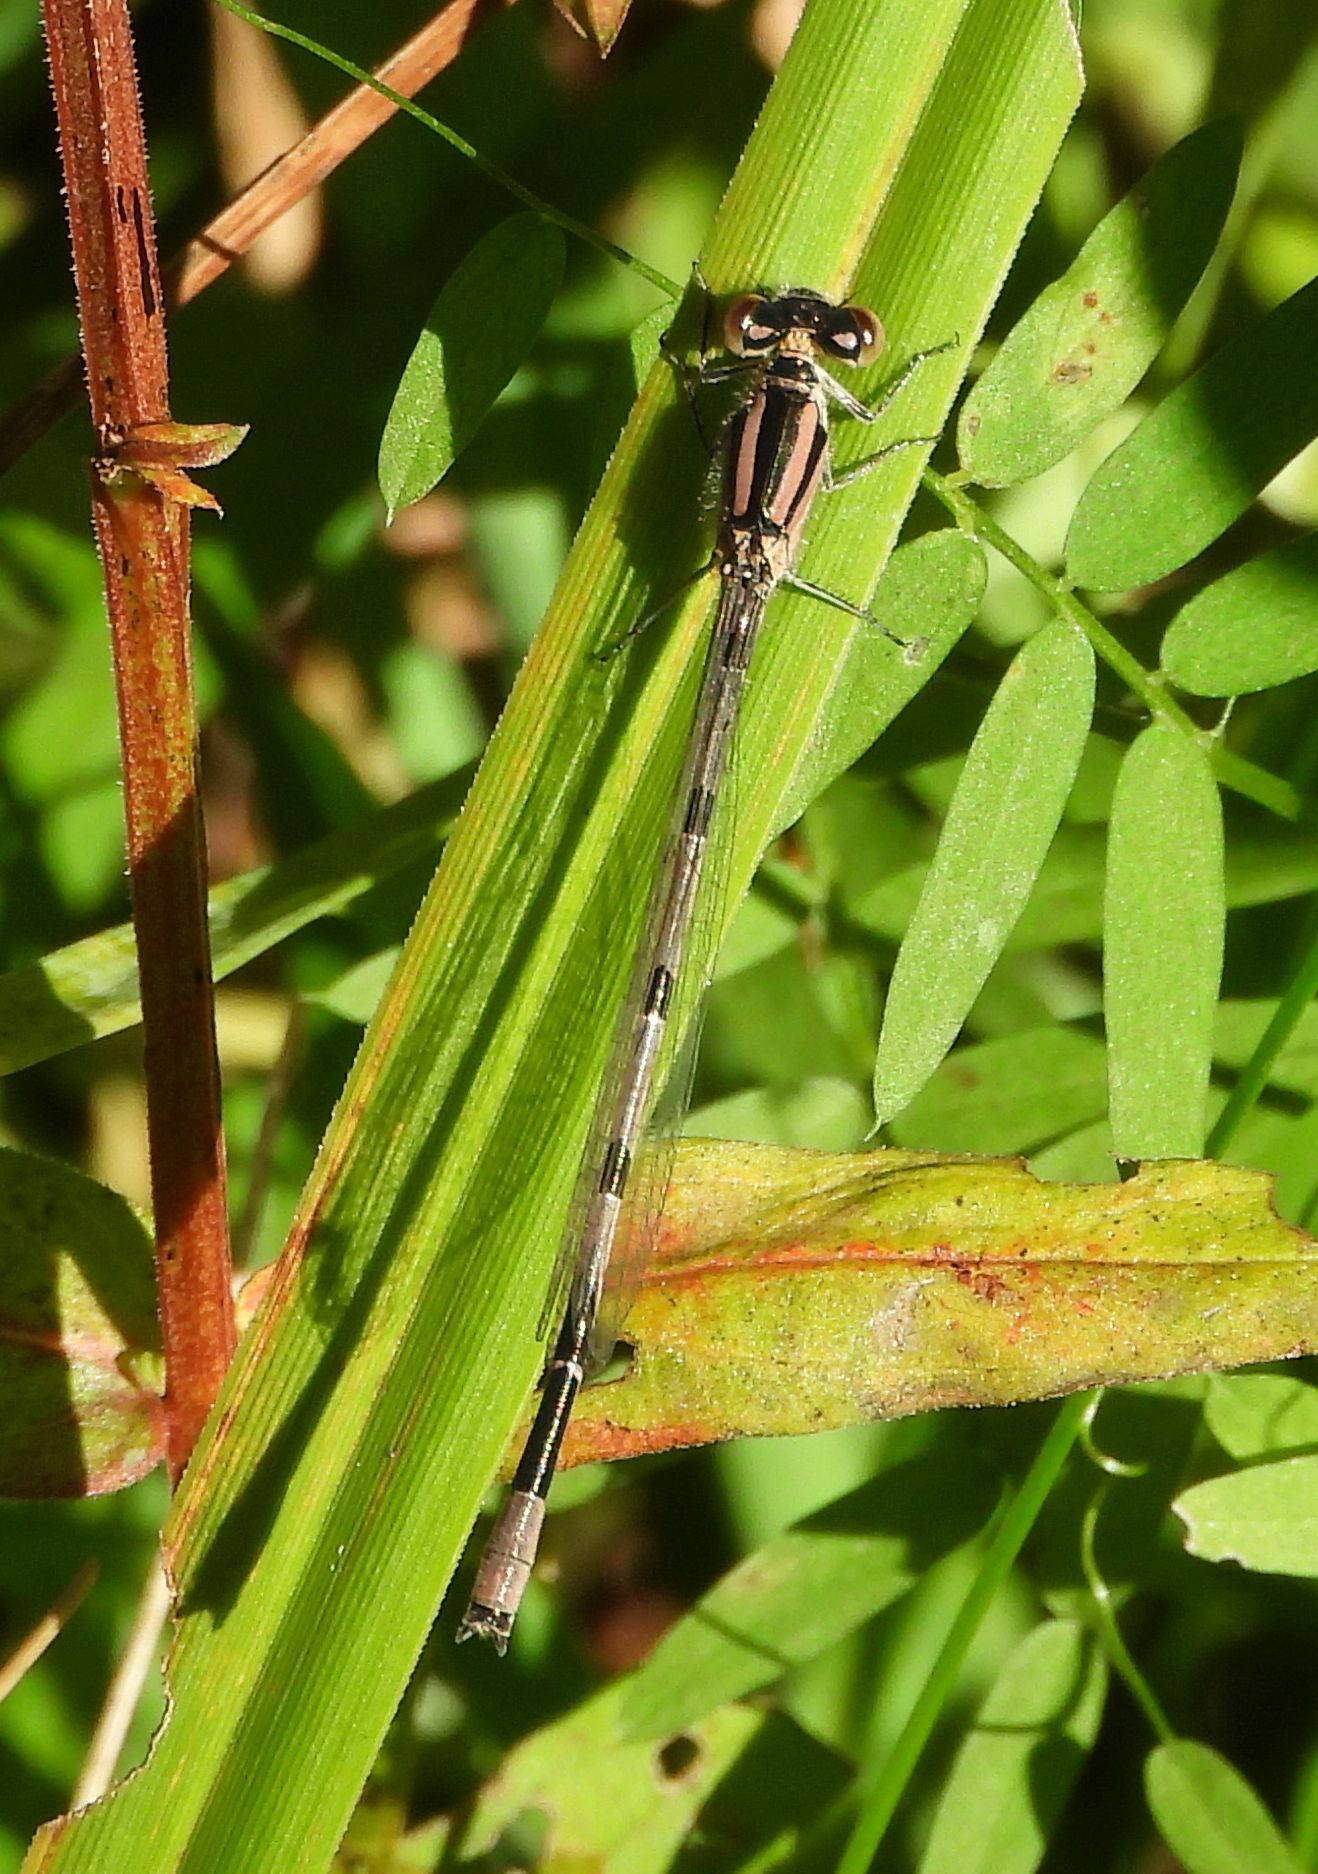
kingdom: Animalia
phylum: Arthropoda
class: Insecta
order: Odonata
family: Coenagrionidae
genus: Enallagma
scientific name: Enallagma civile
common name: Damselfly
